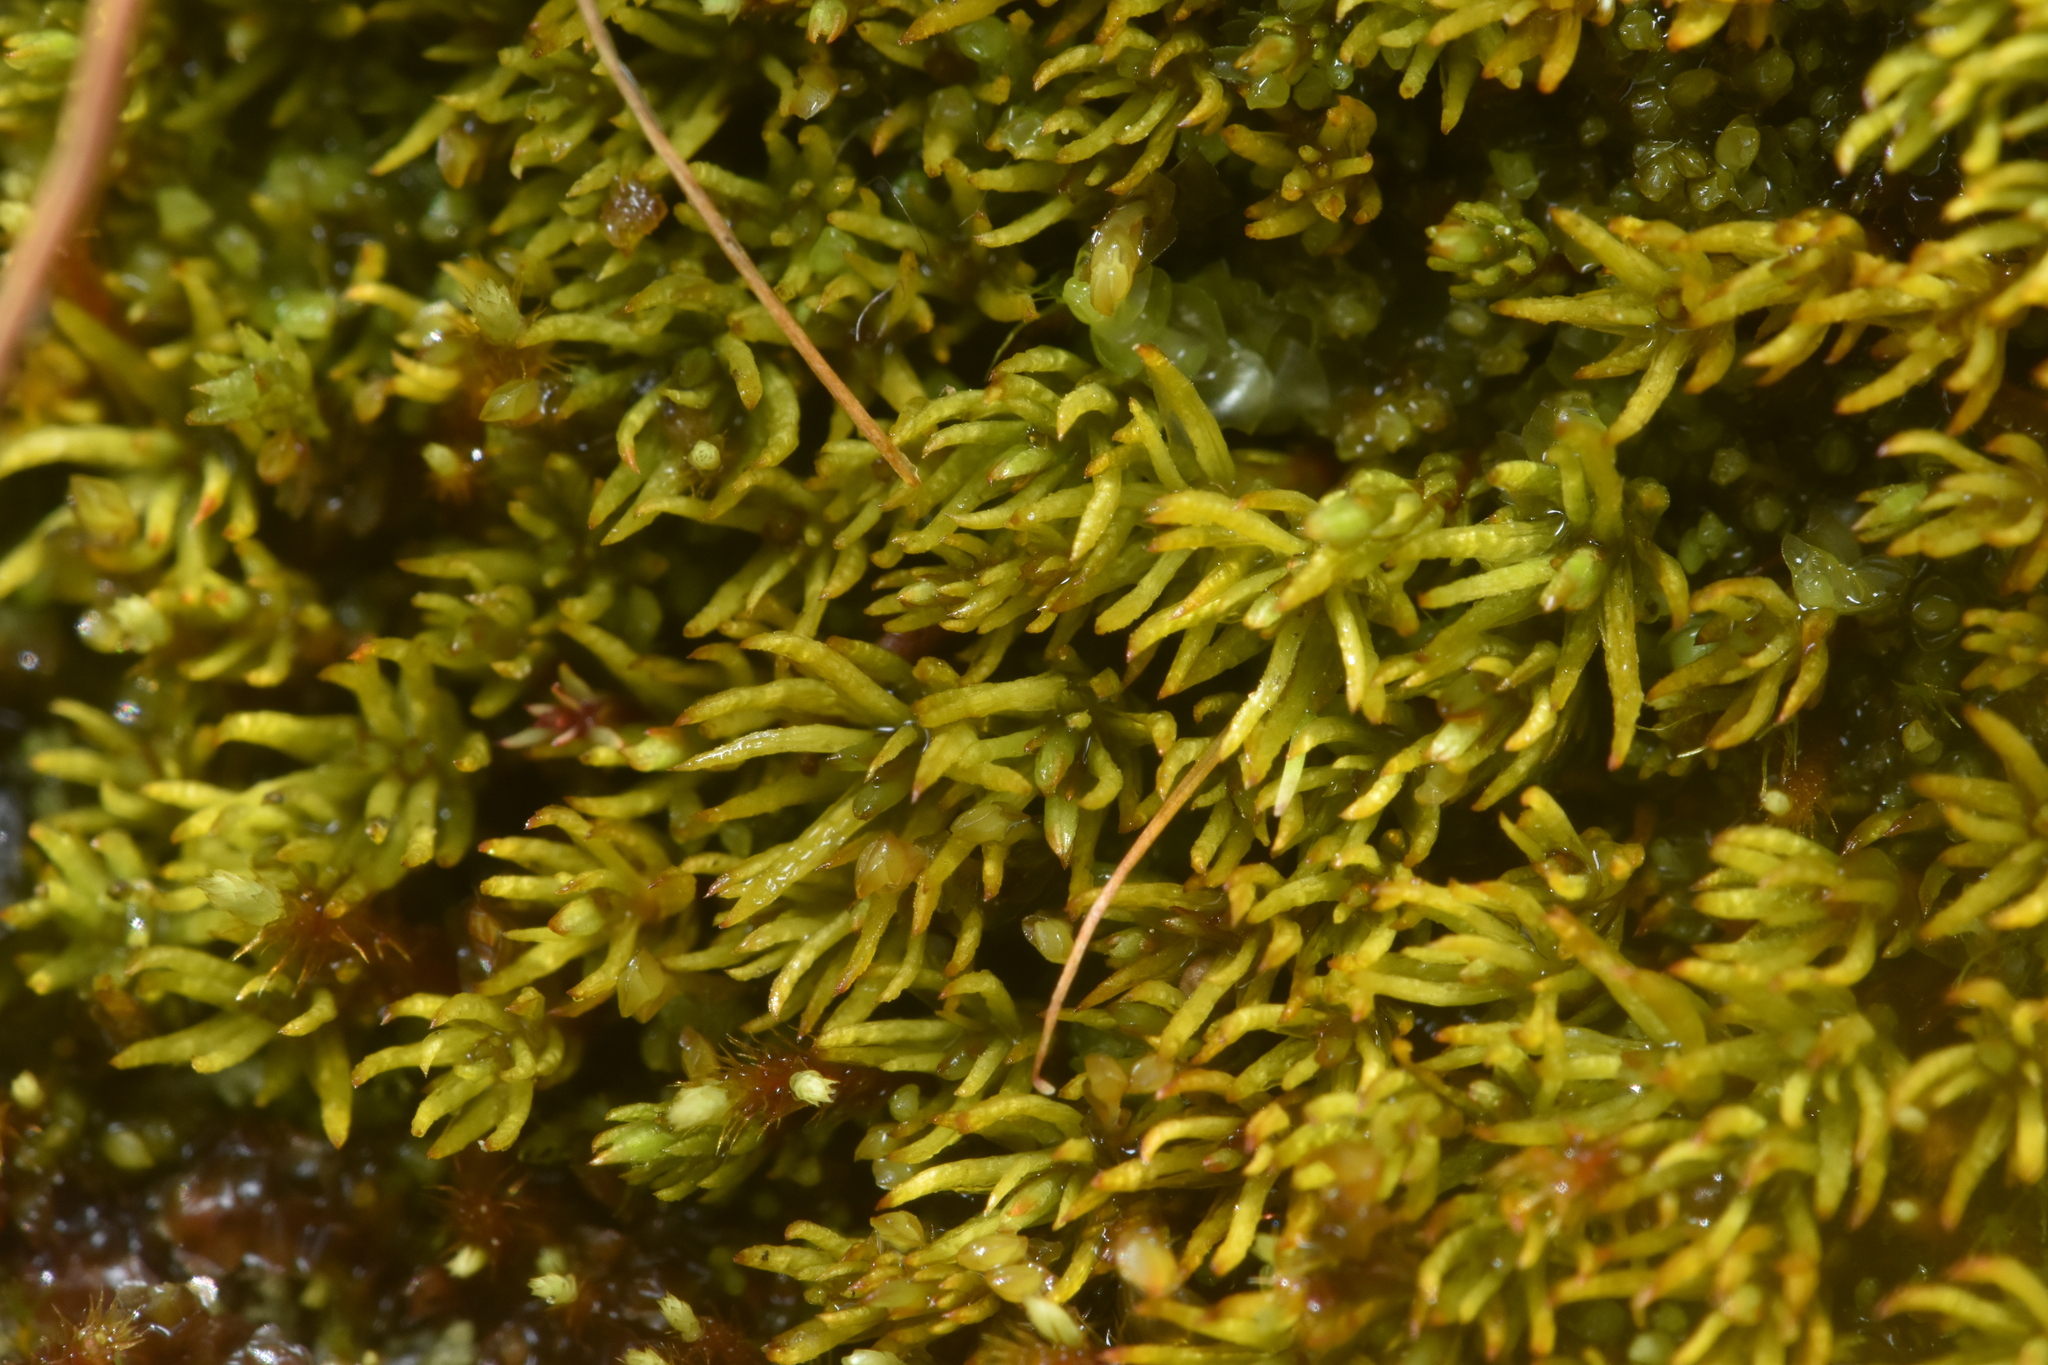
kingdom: Plantae
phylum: Bryophyta
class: Polytrichopsida
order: Polytrichales
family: Polytrichaceae
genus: Polytrichastrum
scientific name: Polytrichastrum sexangulare
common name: Northern haircap
